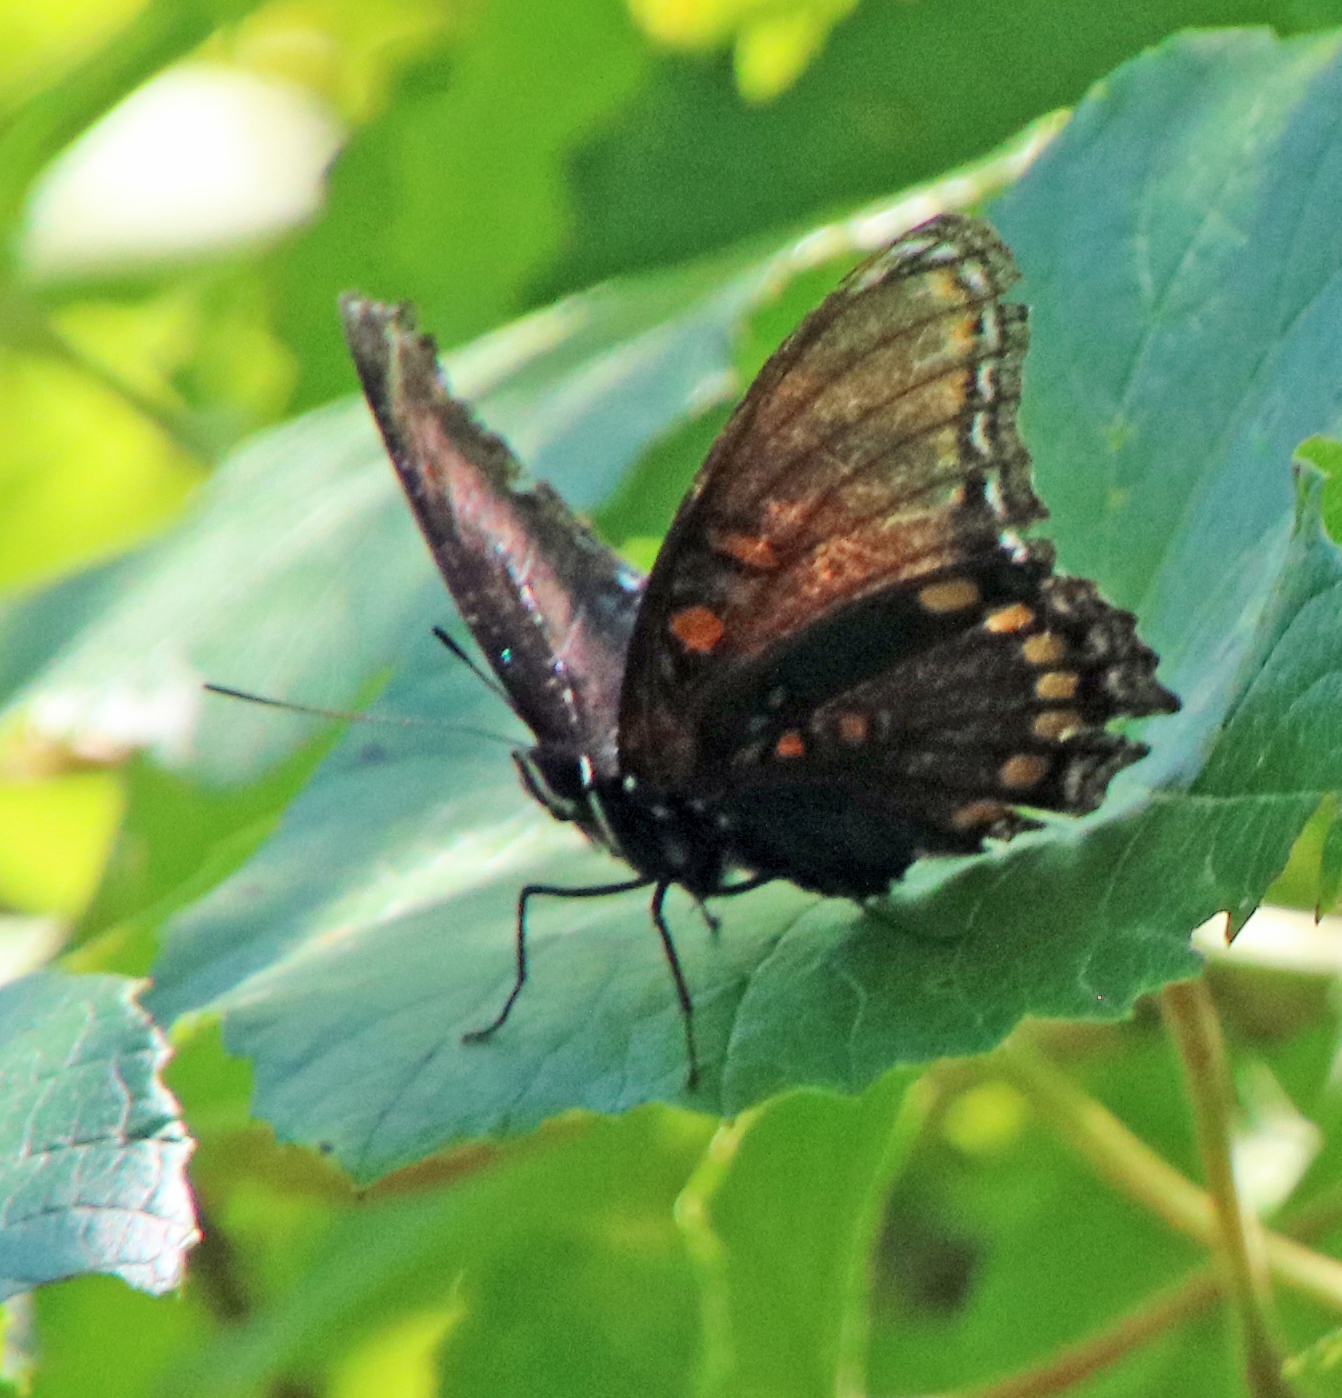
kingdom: Animalia
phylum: Arthropoda
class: Insecta
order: Lepidoptera
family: Nymphalidae
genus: Limenitis
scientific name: Limenitis astyanax
